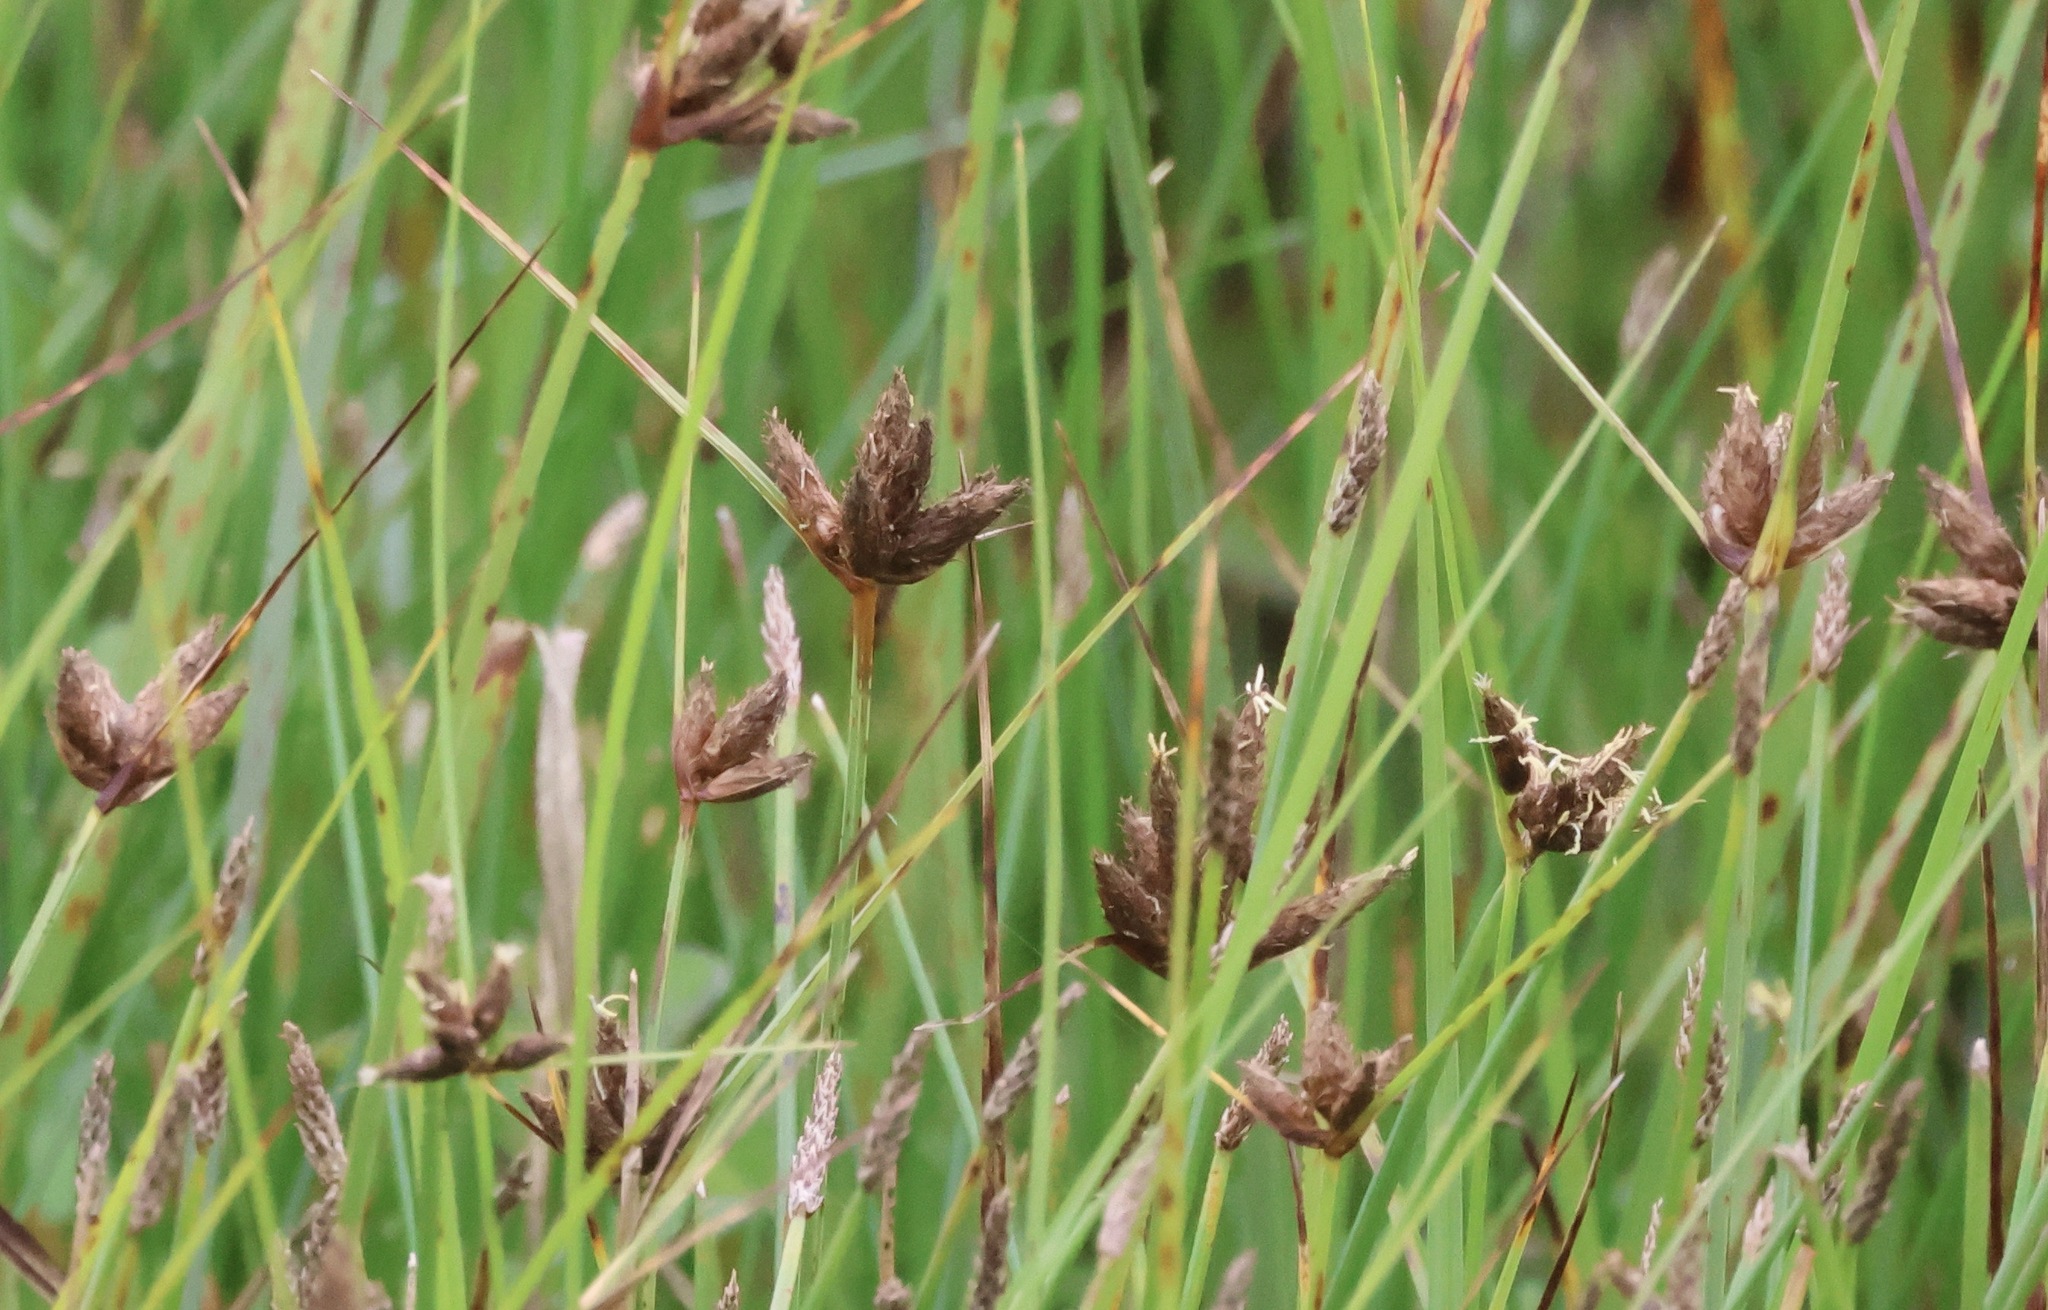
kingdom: Plantae
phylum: Tracheophyta
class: Liliopsida
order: Poales
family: Cyperaceae
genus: Bolboschoenus
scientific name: Bolboschoenus maritimus
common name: Sea club-rush
